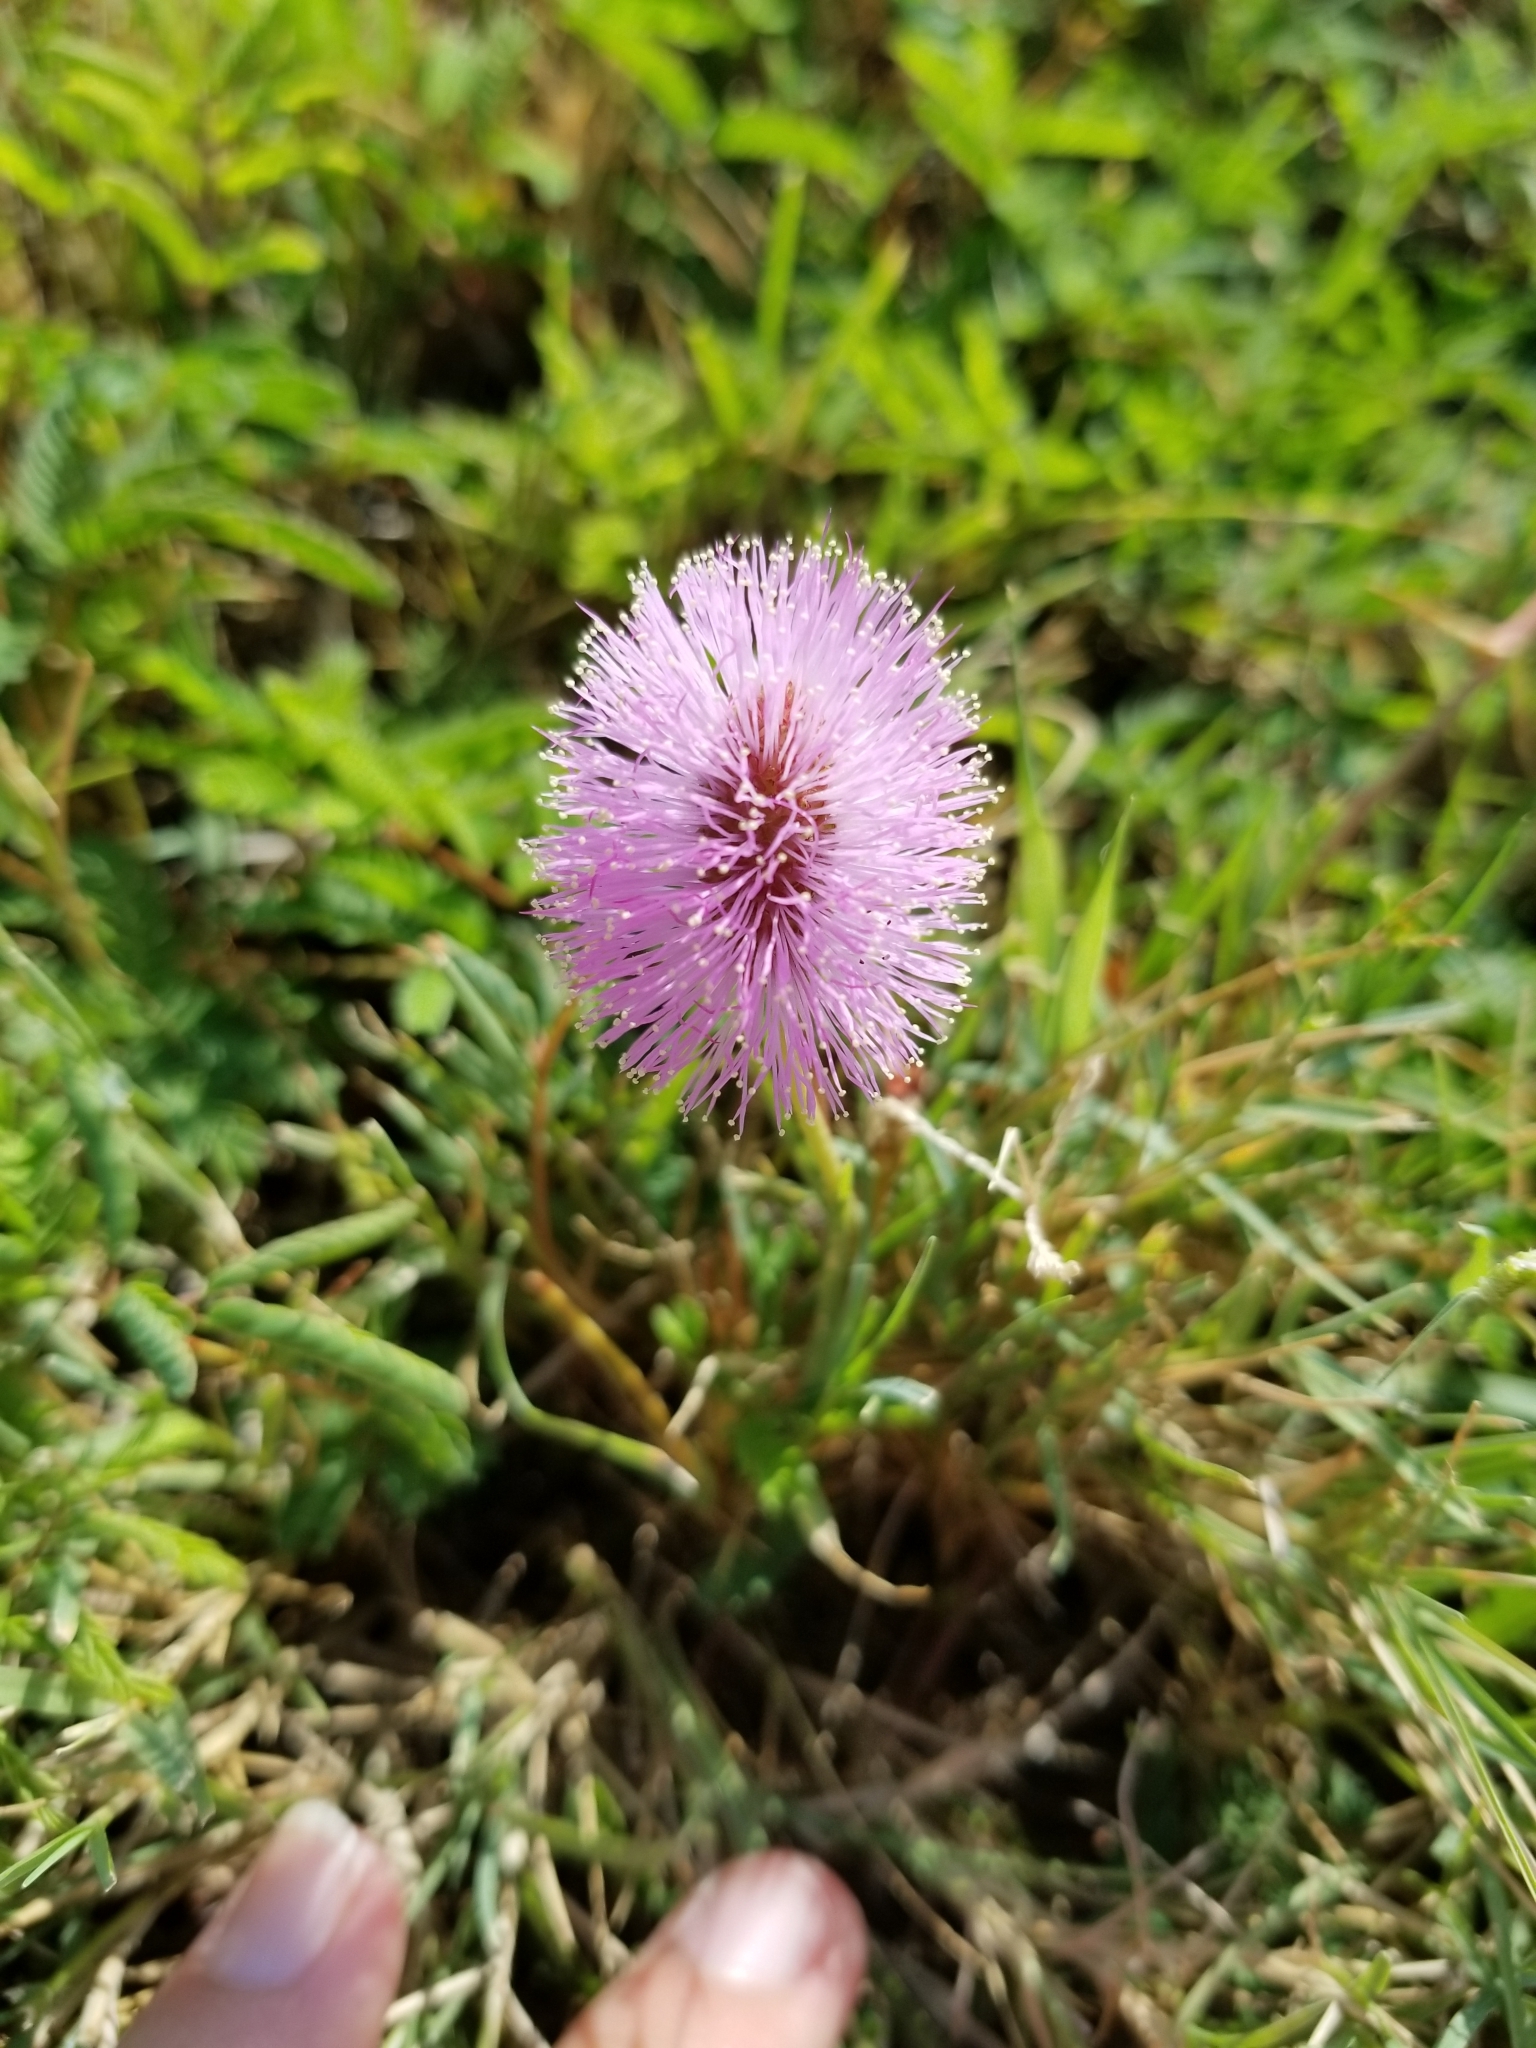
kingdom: Plantae
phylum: Tracheophyta
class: Magnoliopsida
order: Fabales
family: Fabaceae
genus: Mimosa
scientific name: Mimosa strigillosa
